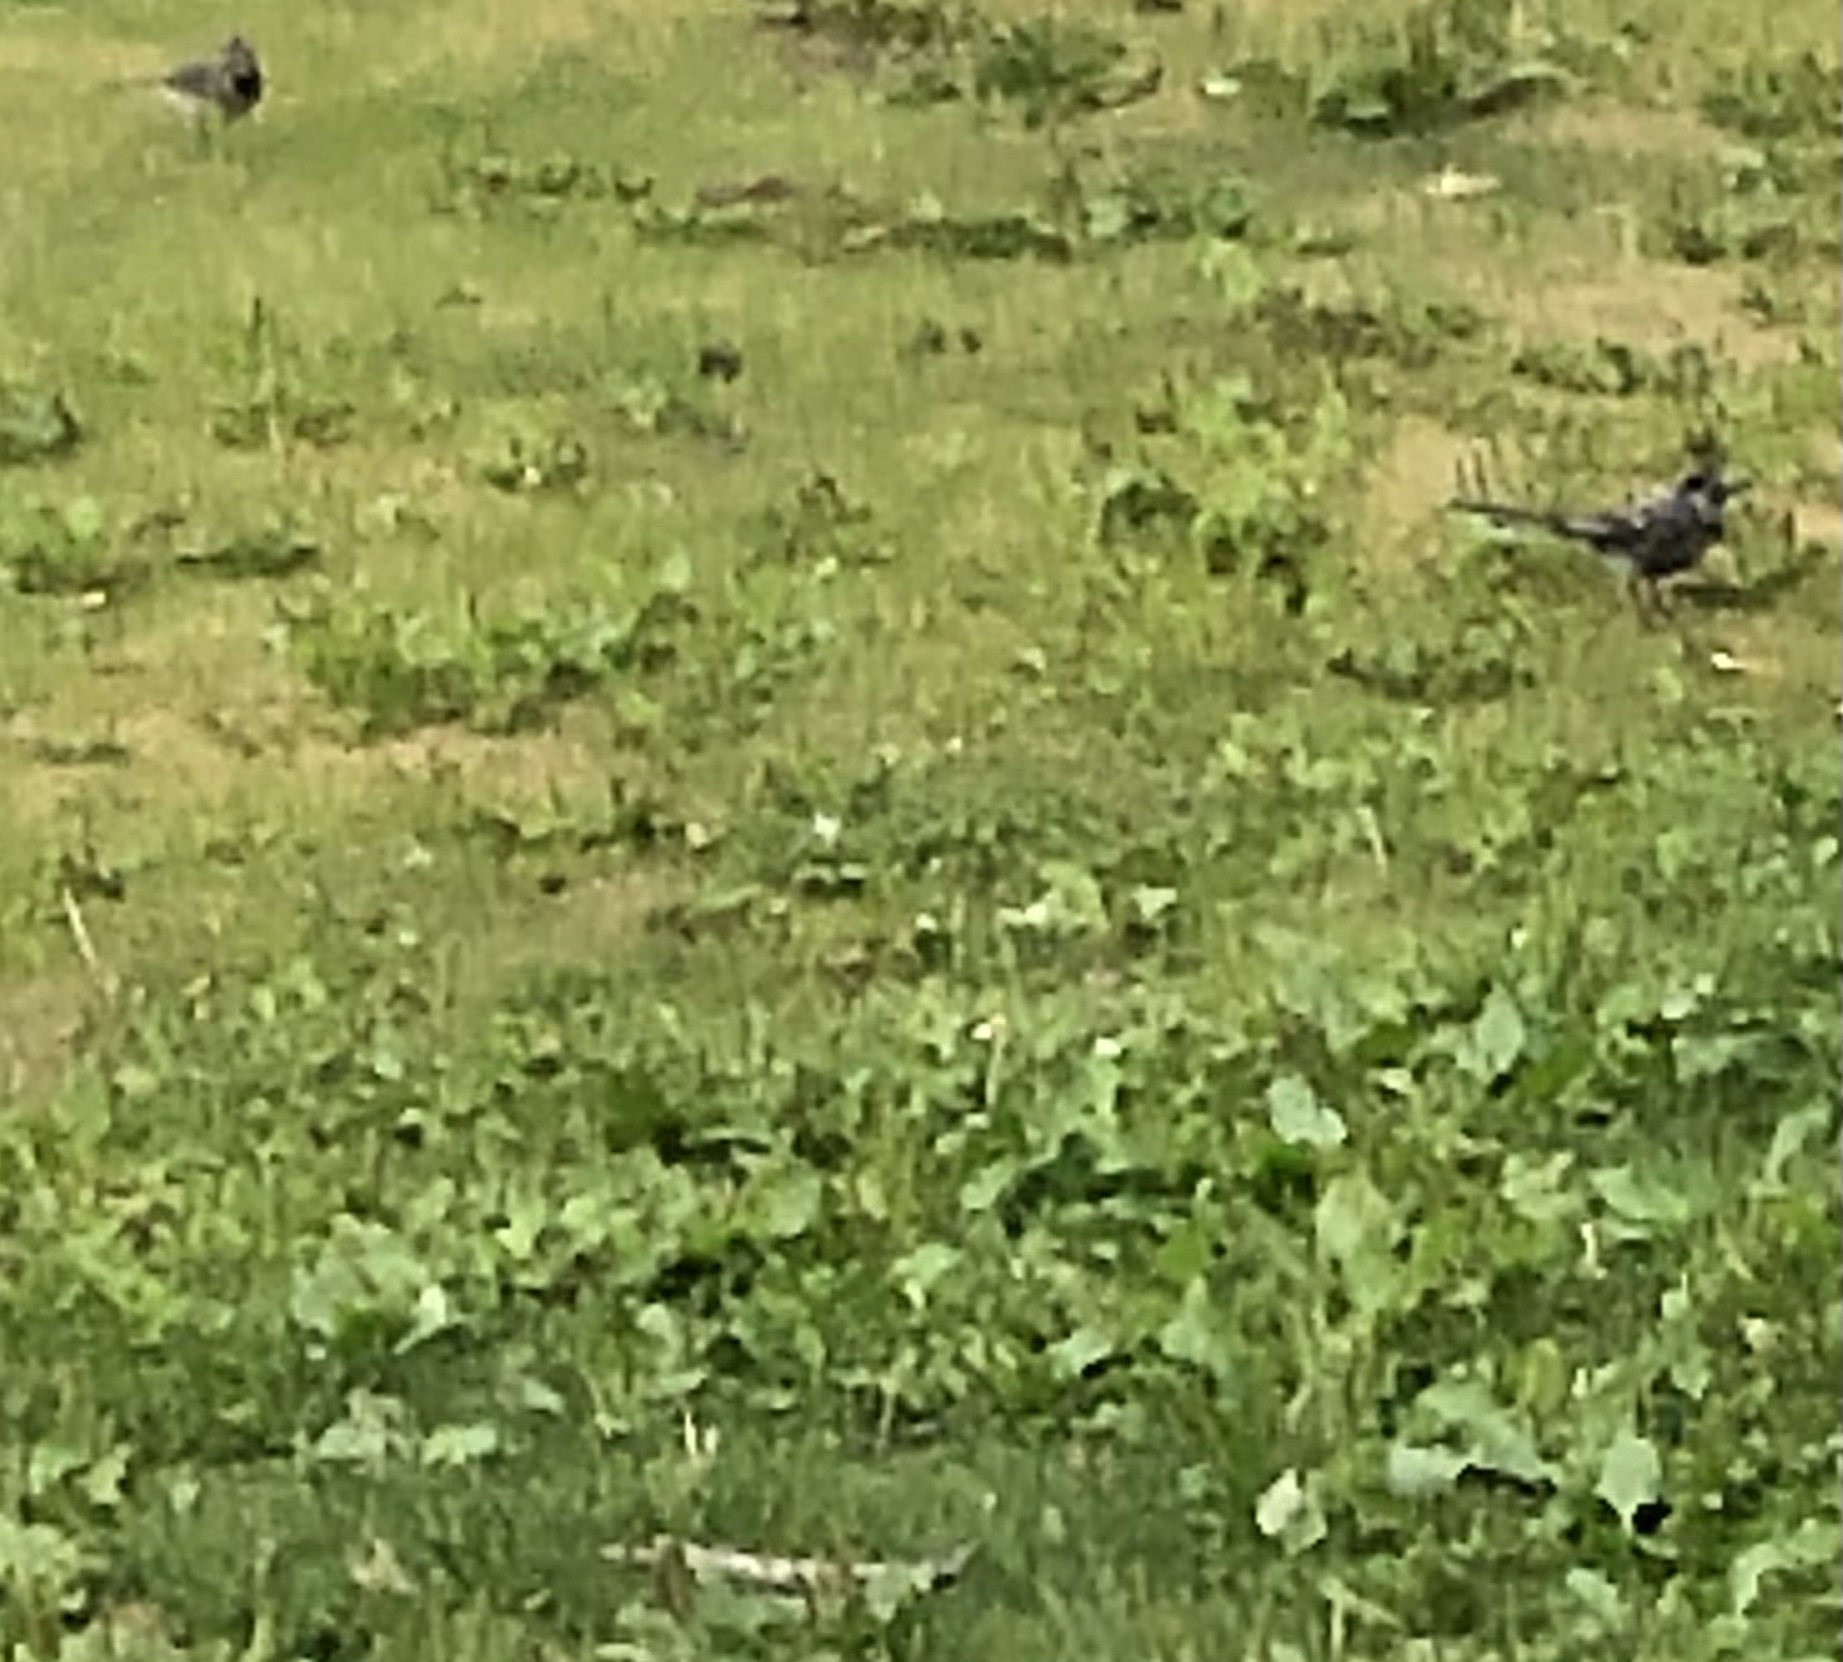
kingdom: Animalia
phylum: Chordata
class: Aves
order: Passeriformes
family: Motacillidae
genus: Motacilla
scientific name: Motacilla alba
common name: White wagtail
